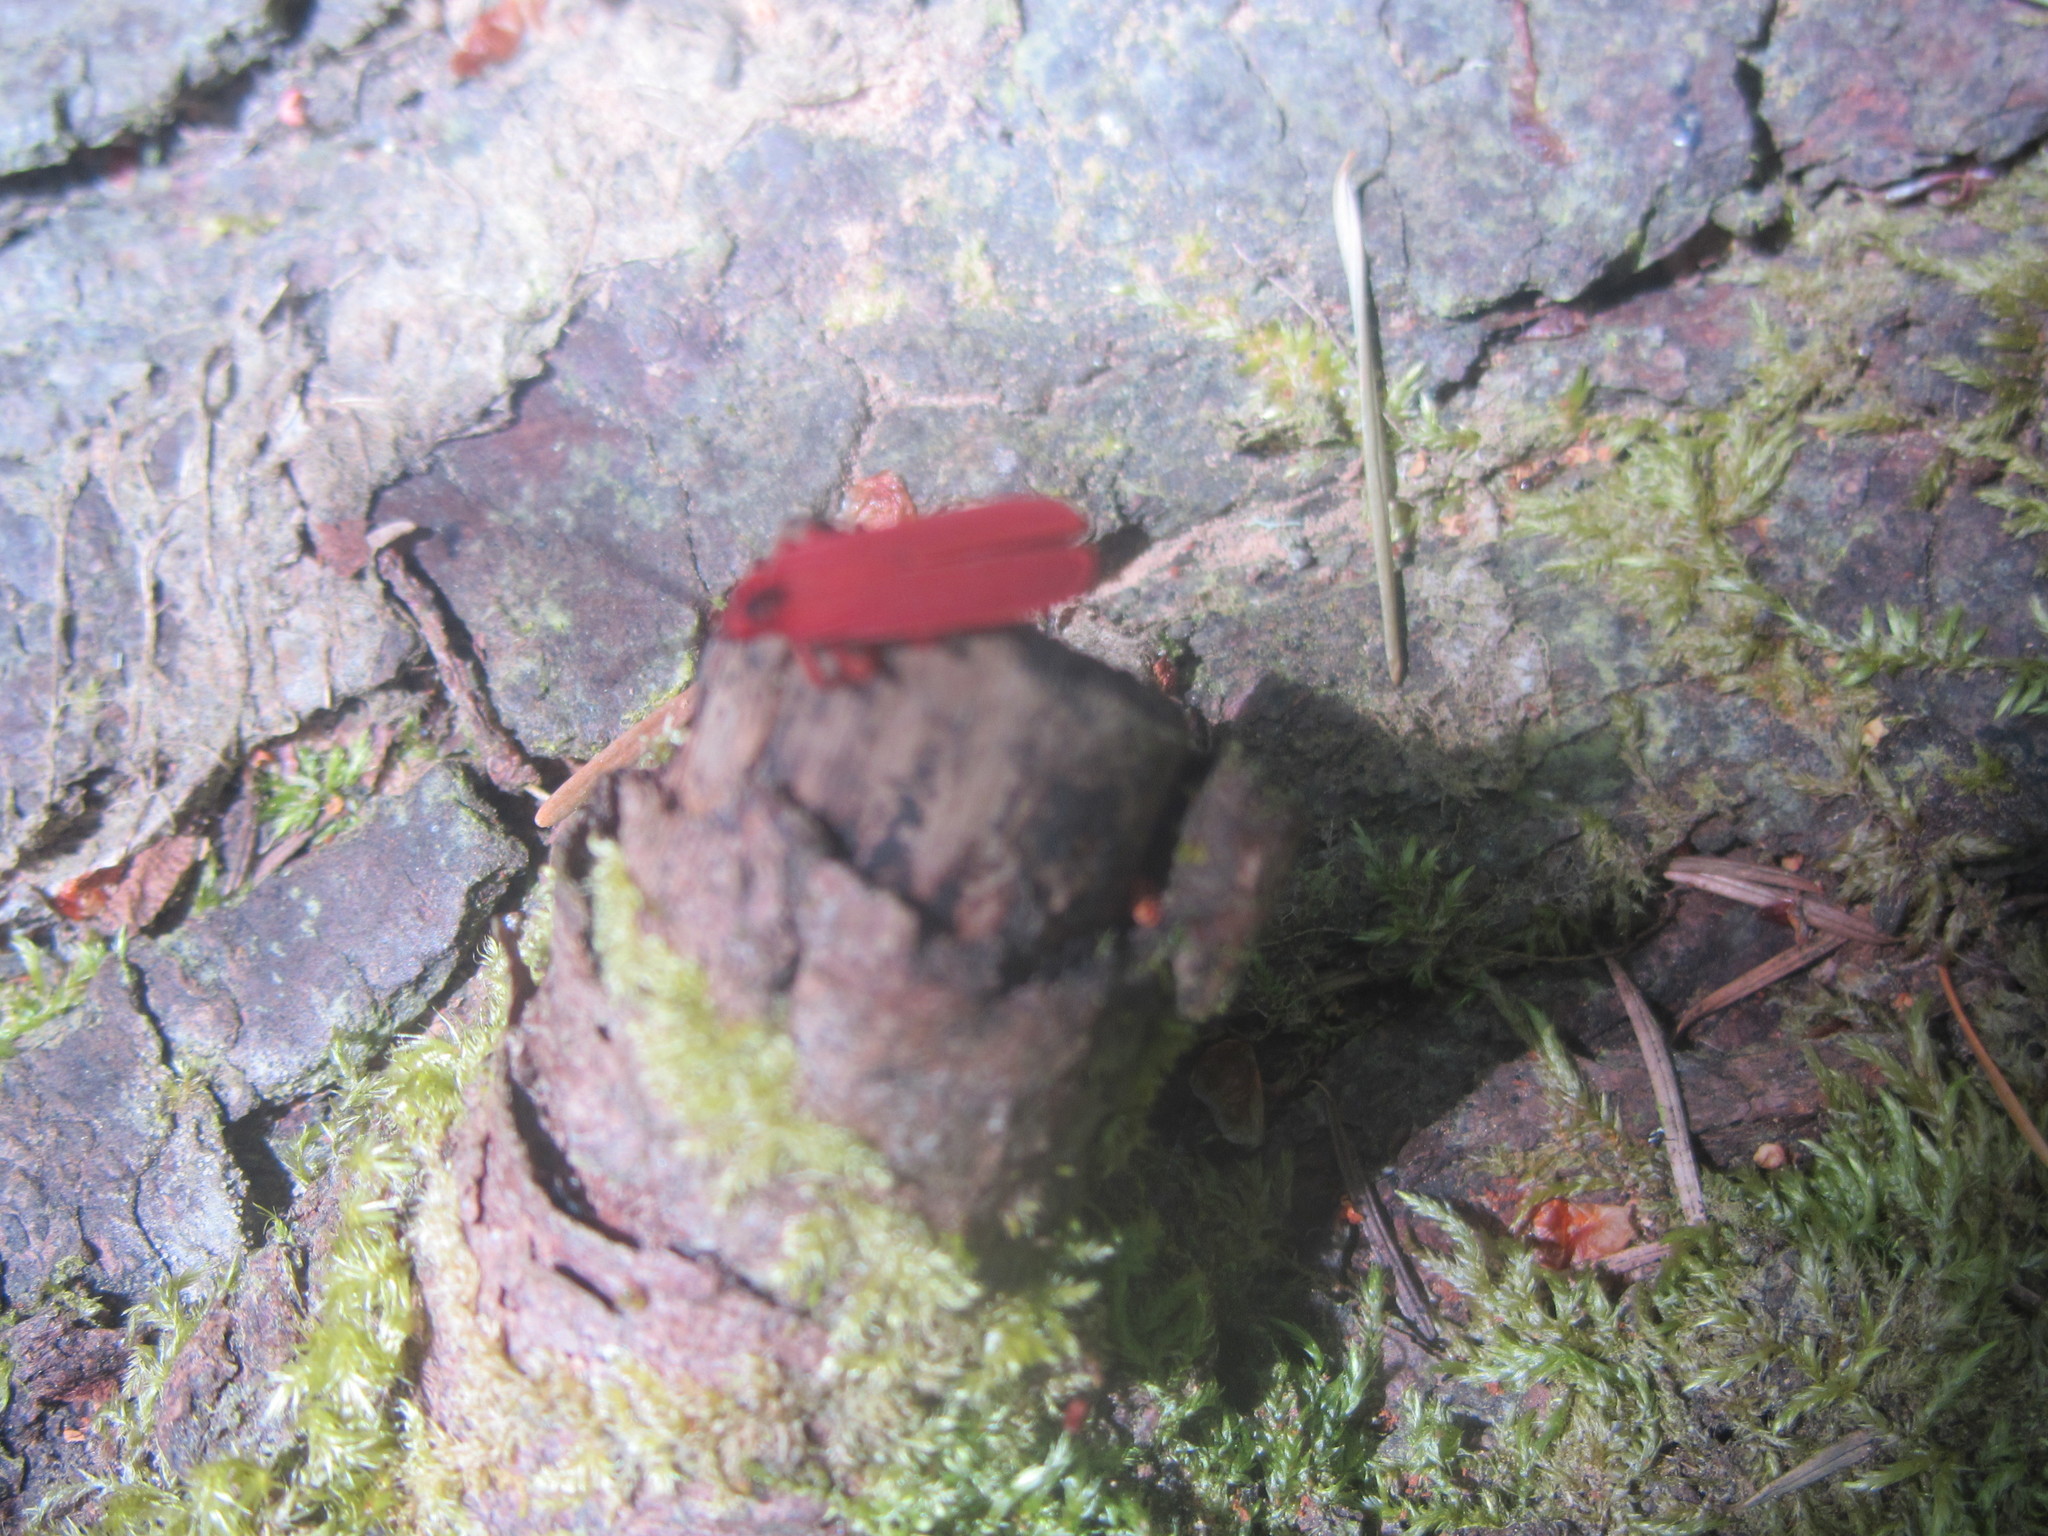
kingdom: Animalia
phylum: Arthropoda
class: Insecta
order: Coleoptera
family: Lycidae
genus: Dictyoptera
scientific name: Dictyoptera simplicipes
